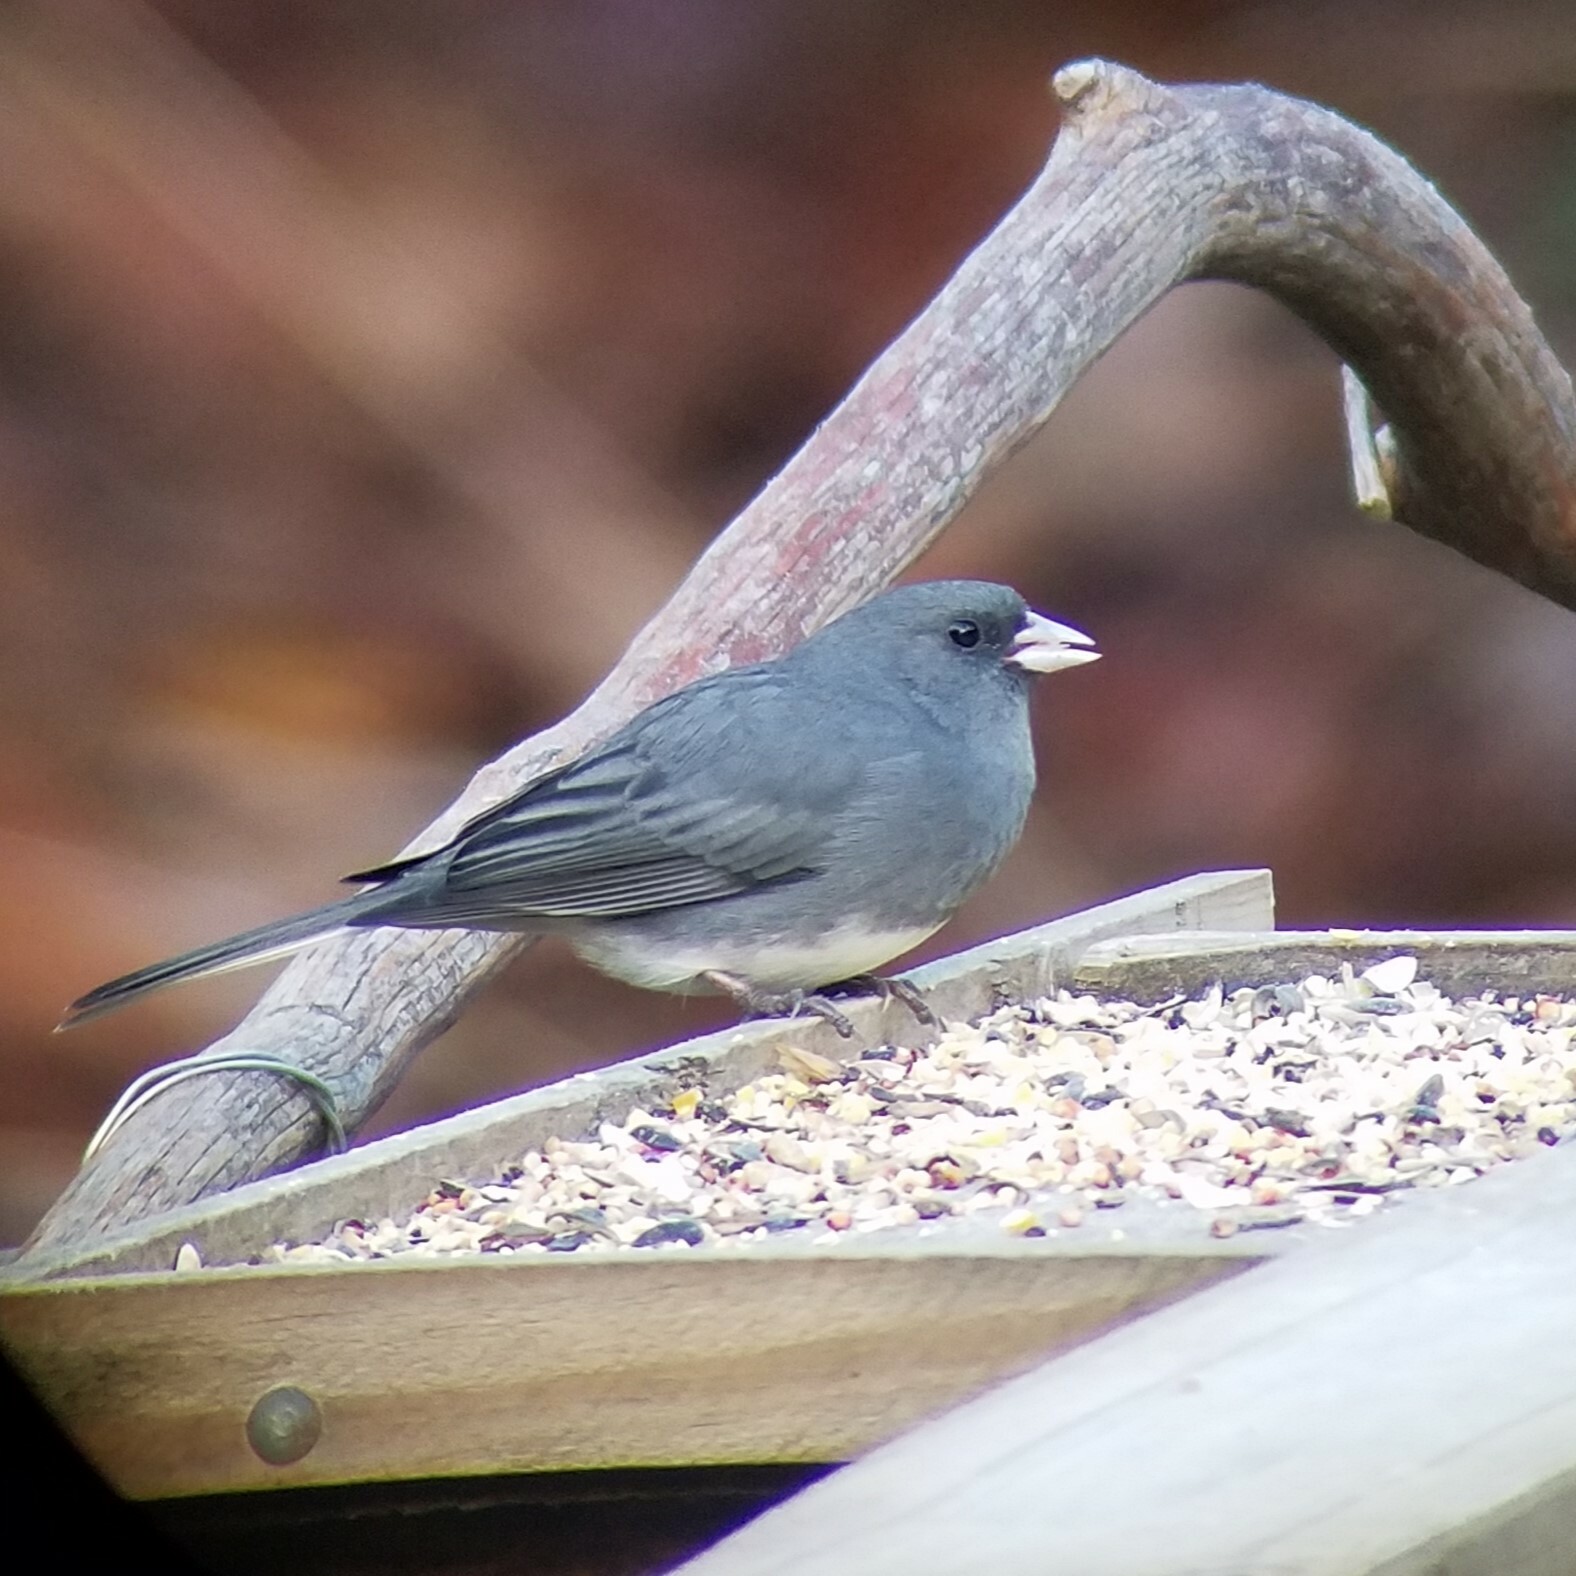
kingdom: Animalia
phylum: Chordata
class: Aves
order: Passeriformes
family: Passerellidae
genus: Junco
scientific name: Junco hyemalis
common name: Dark-eyed junco
